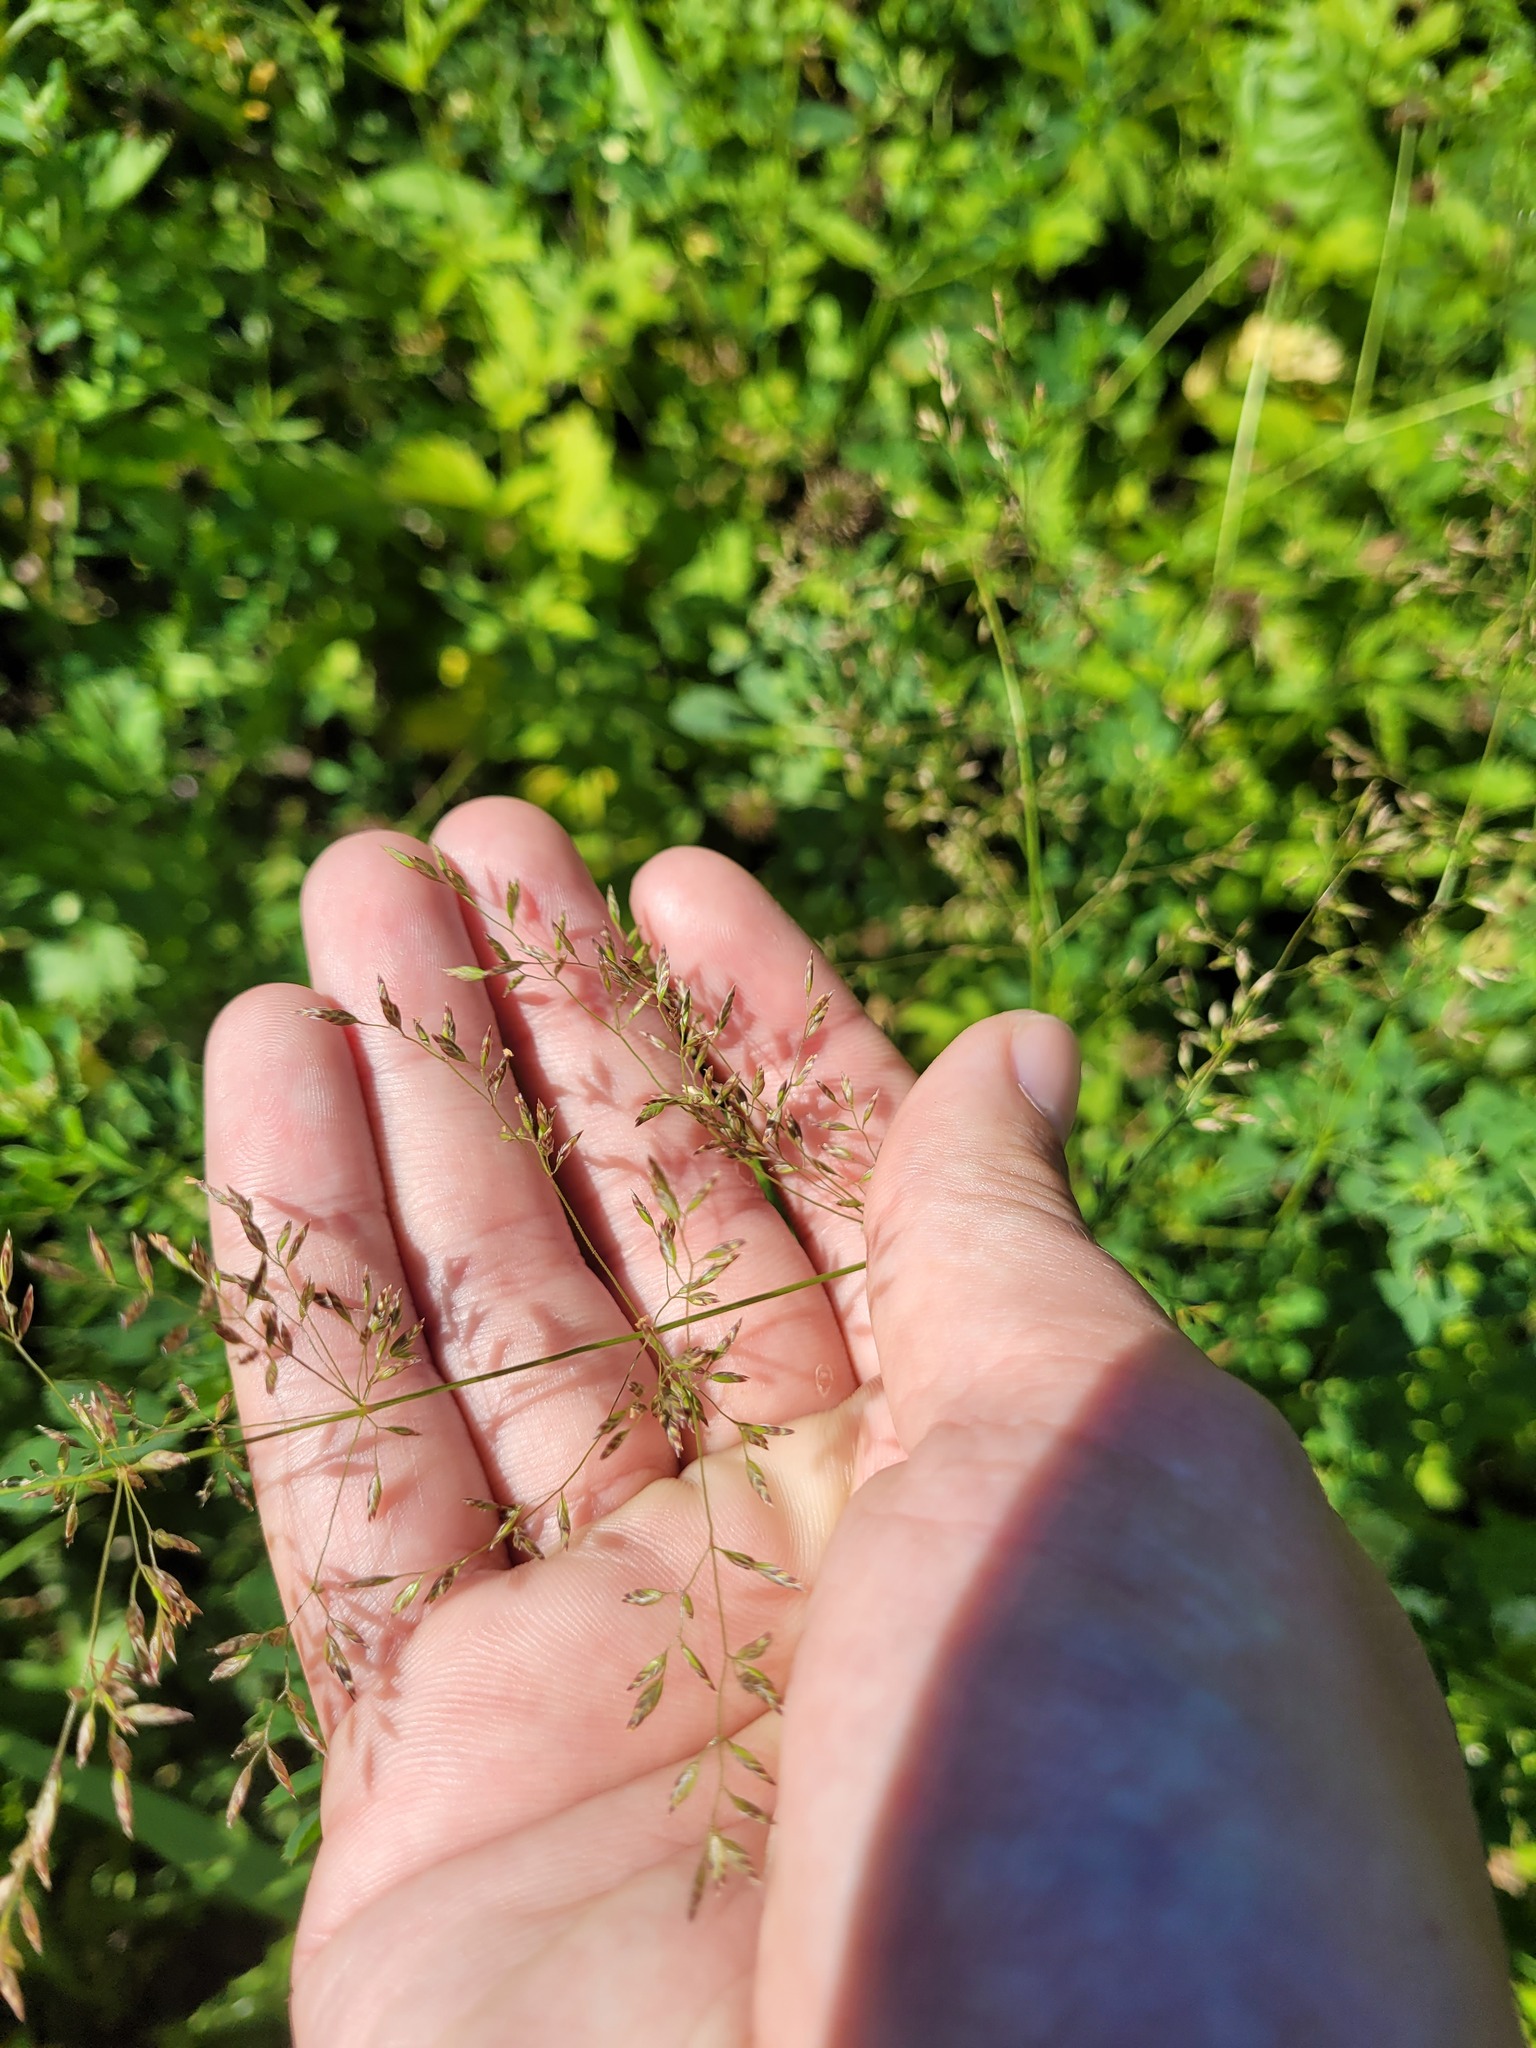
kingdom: Plantae
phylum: Tracheophyta
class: Liliopsida
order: Poales
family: Poaceae
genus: Poa
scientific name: Poa palustris
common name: Swamp meadow-grass
